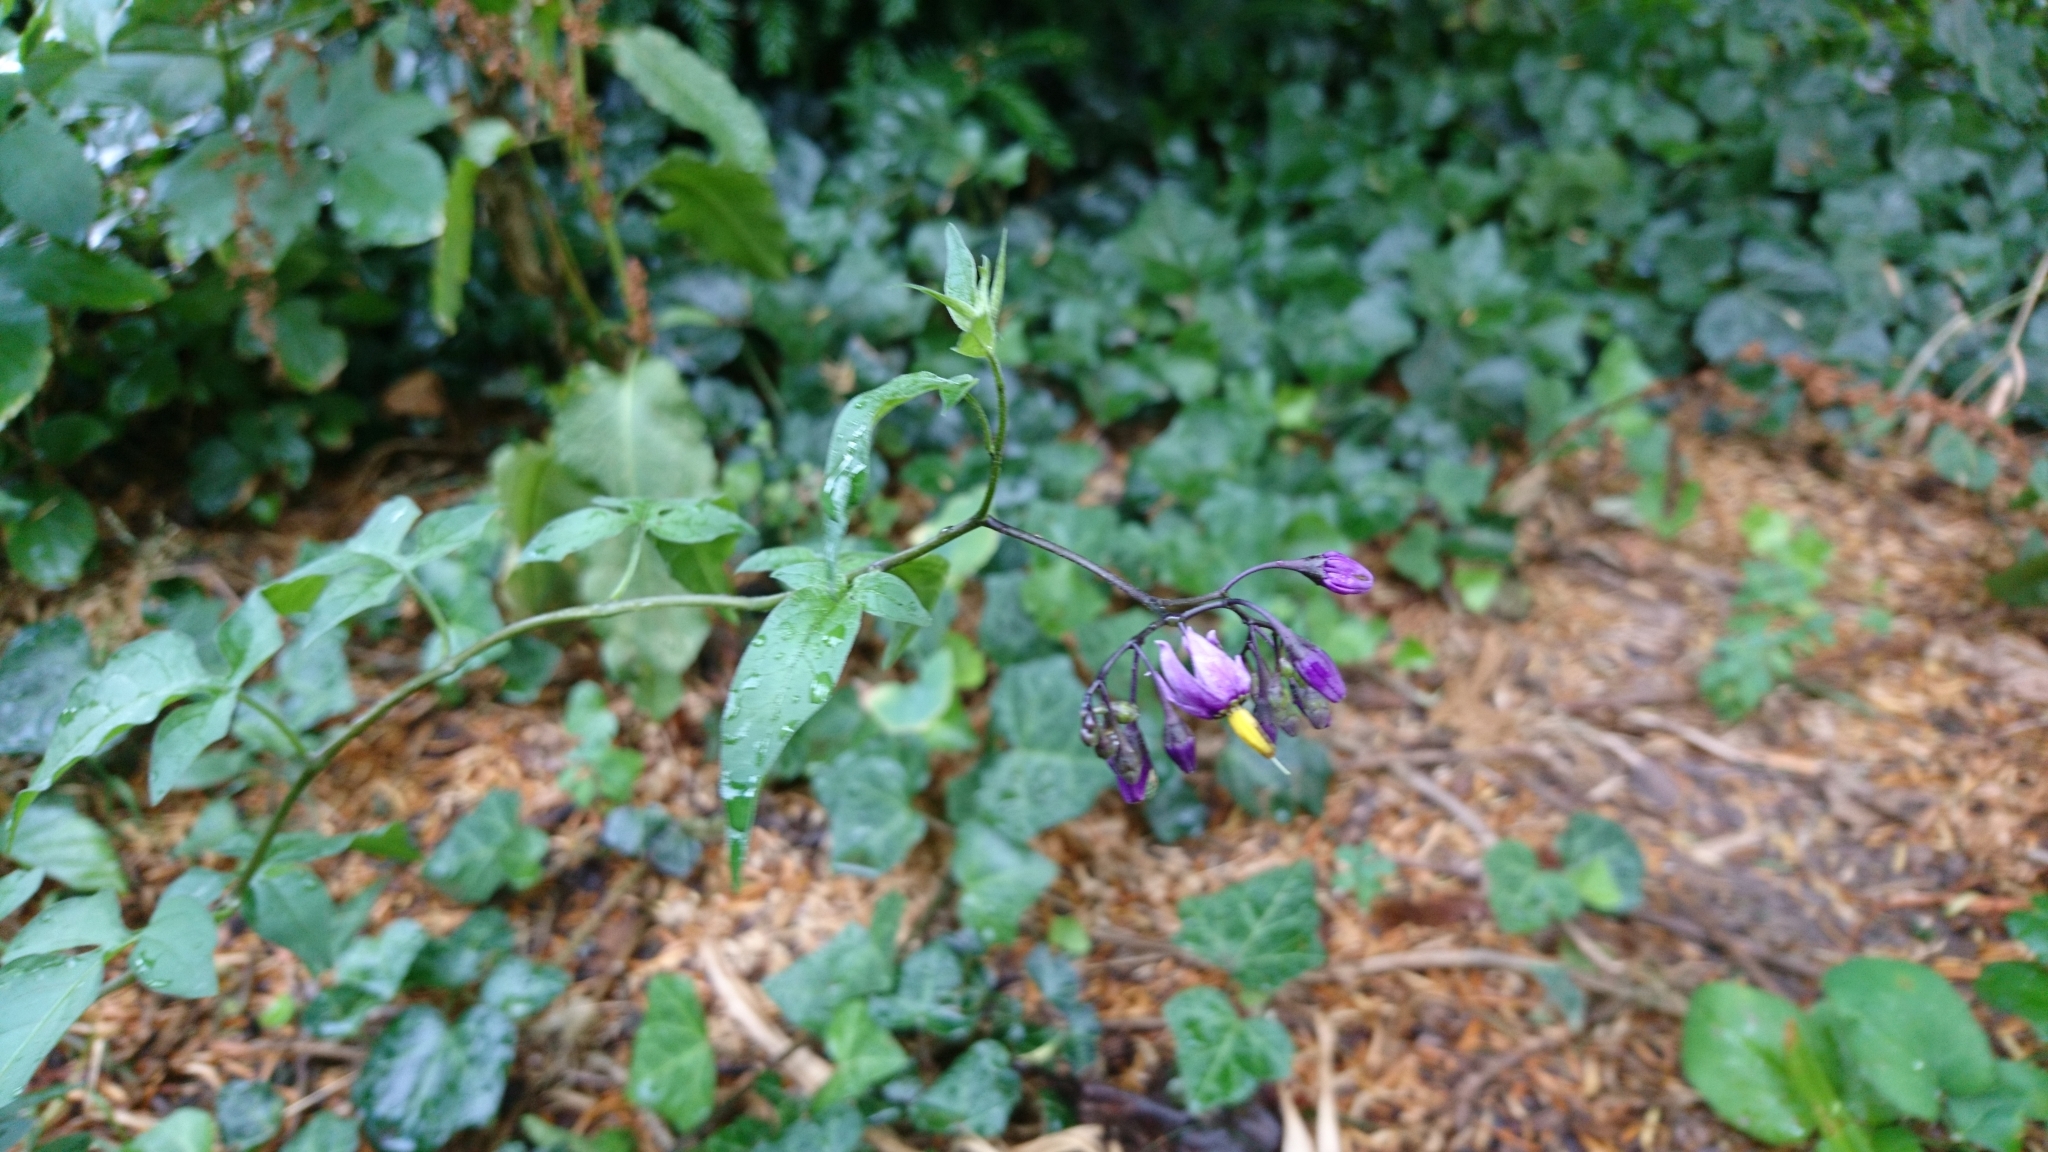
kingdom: Plantae
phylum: Tracheophyta
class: Magnoliopsida
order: Solanales
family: Solanaceae
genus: Solanum
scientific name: Solanum dulcamara
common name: Climbing nightshade
